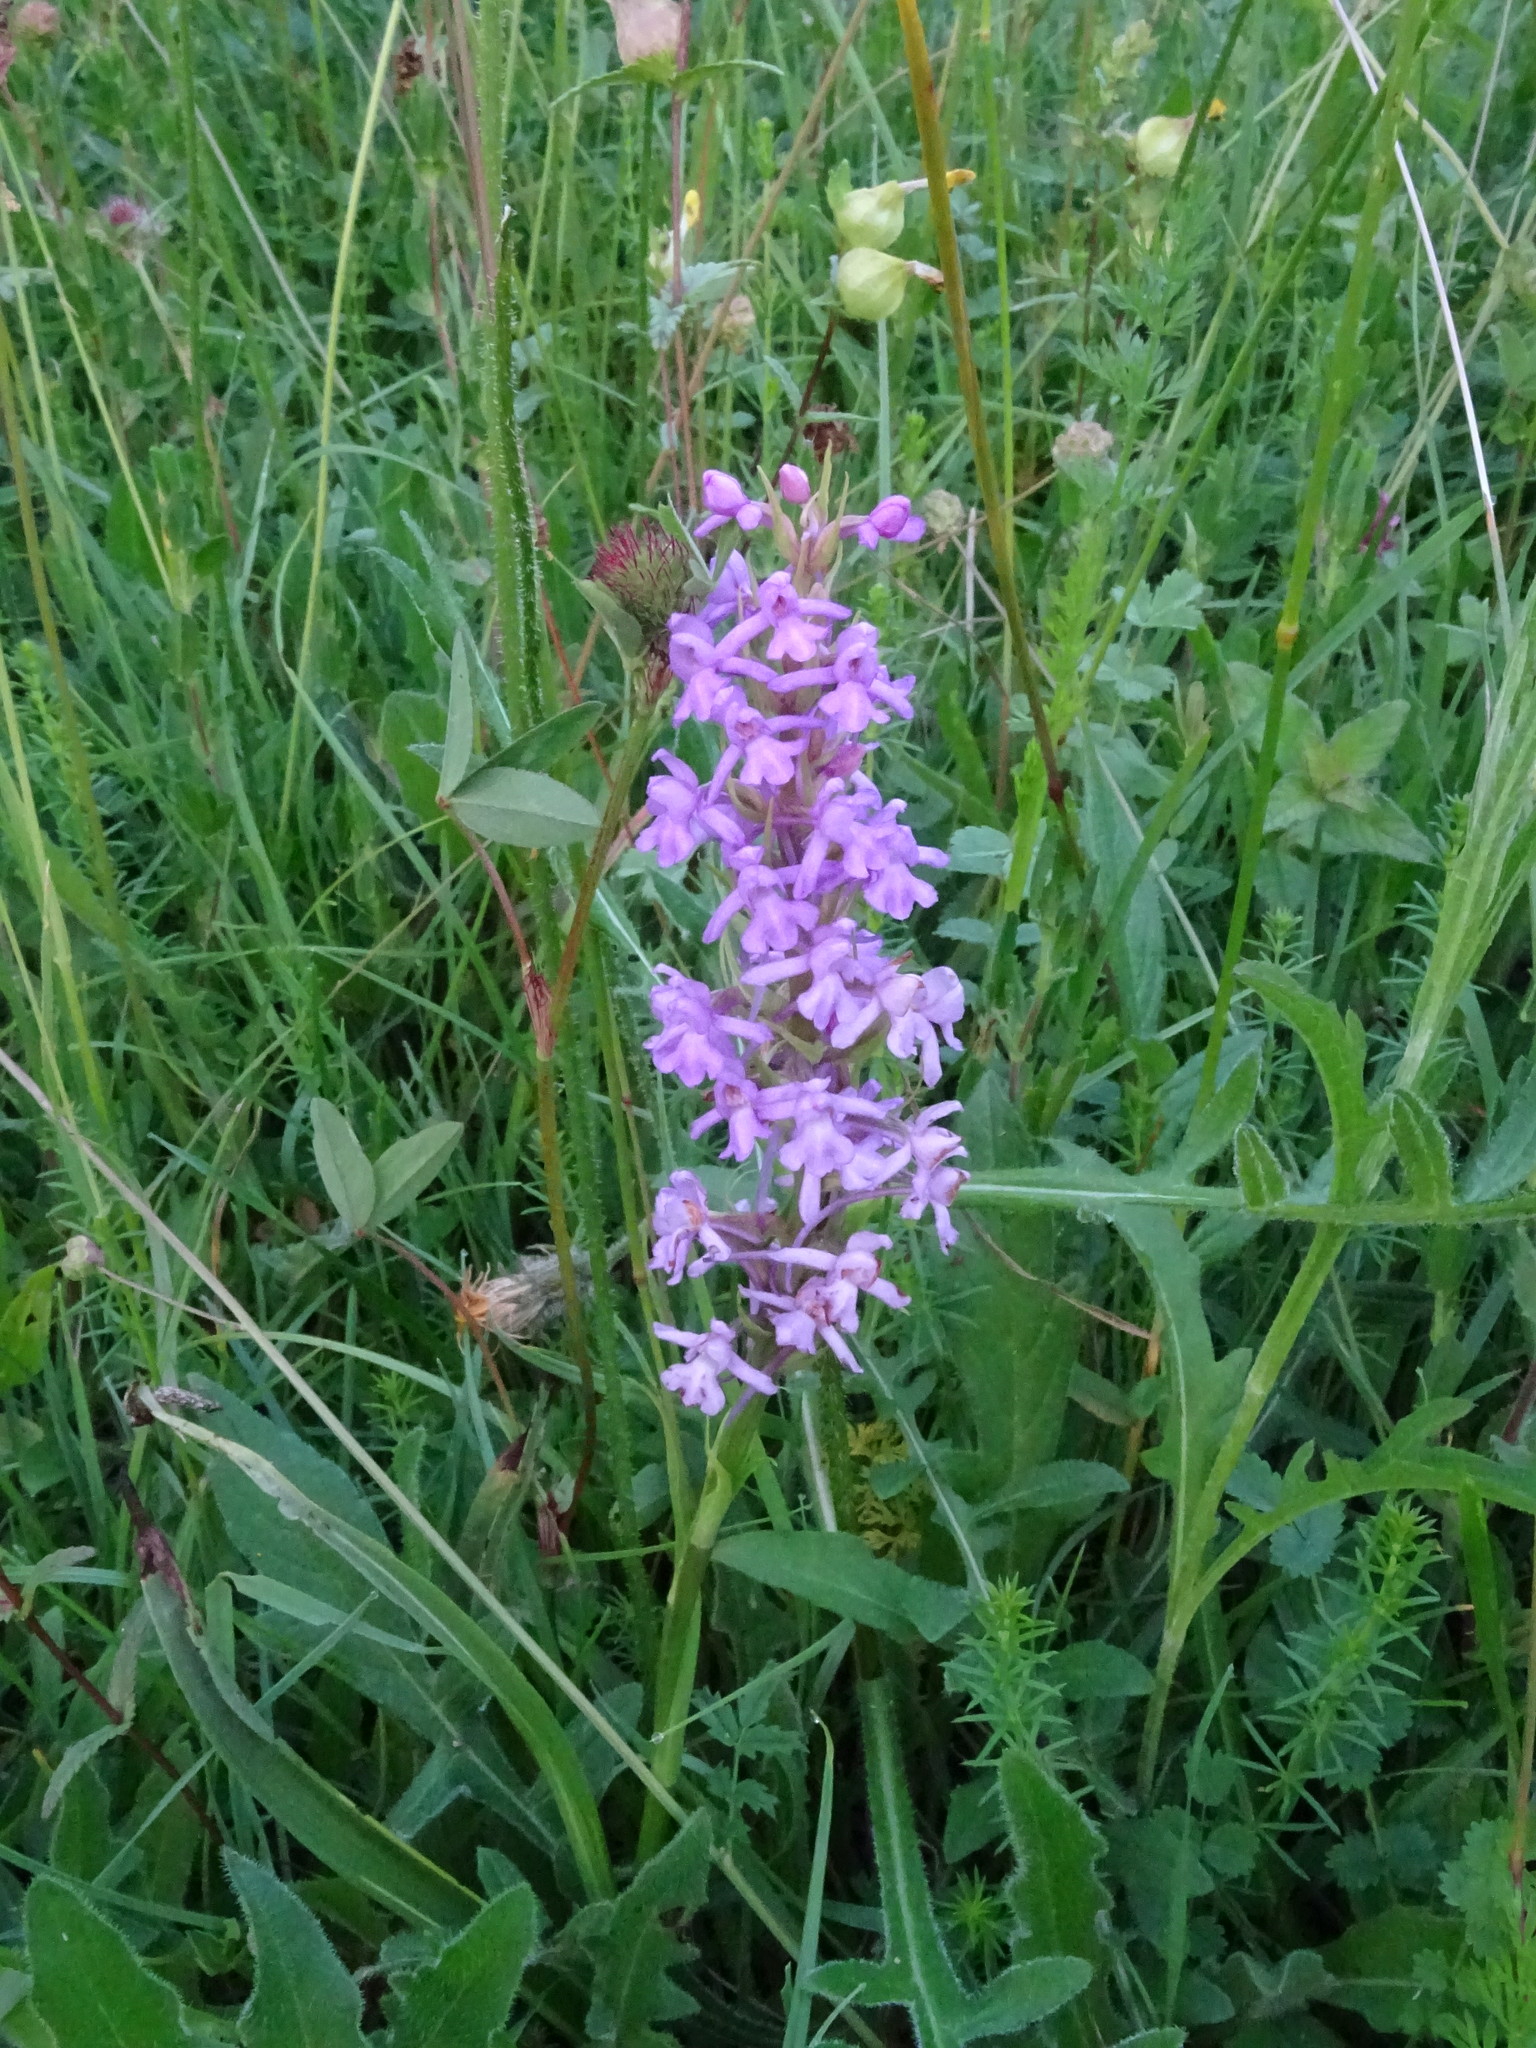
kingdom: Plantae
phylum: Tracheophyta
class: Liliopsida
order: Asparagales
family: Orchidaceae
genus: Gymnadenia
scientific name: Gymnadenia densiflora
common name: Marsh fragrant-orchid
